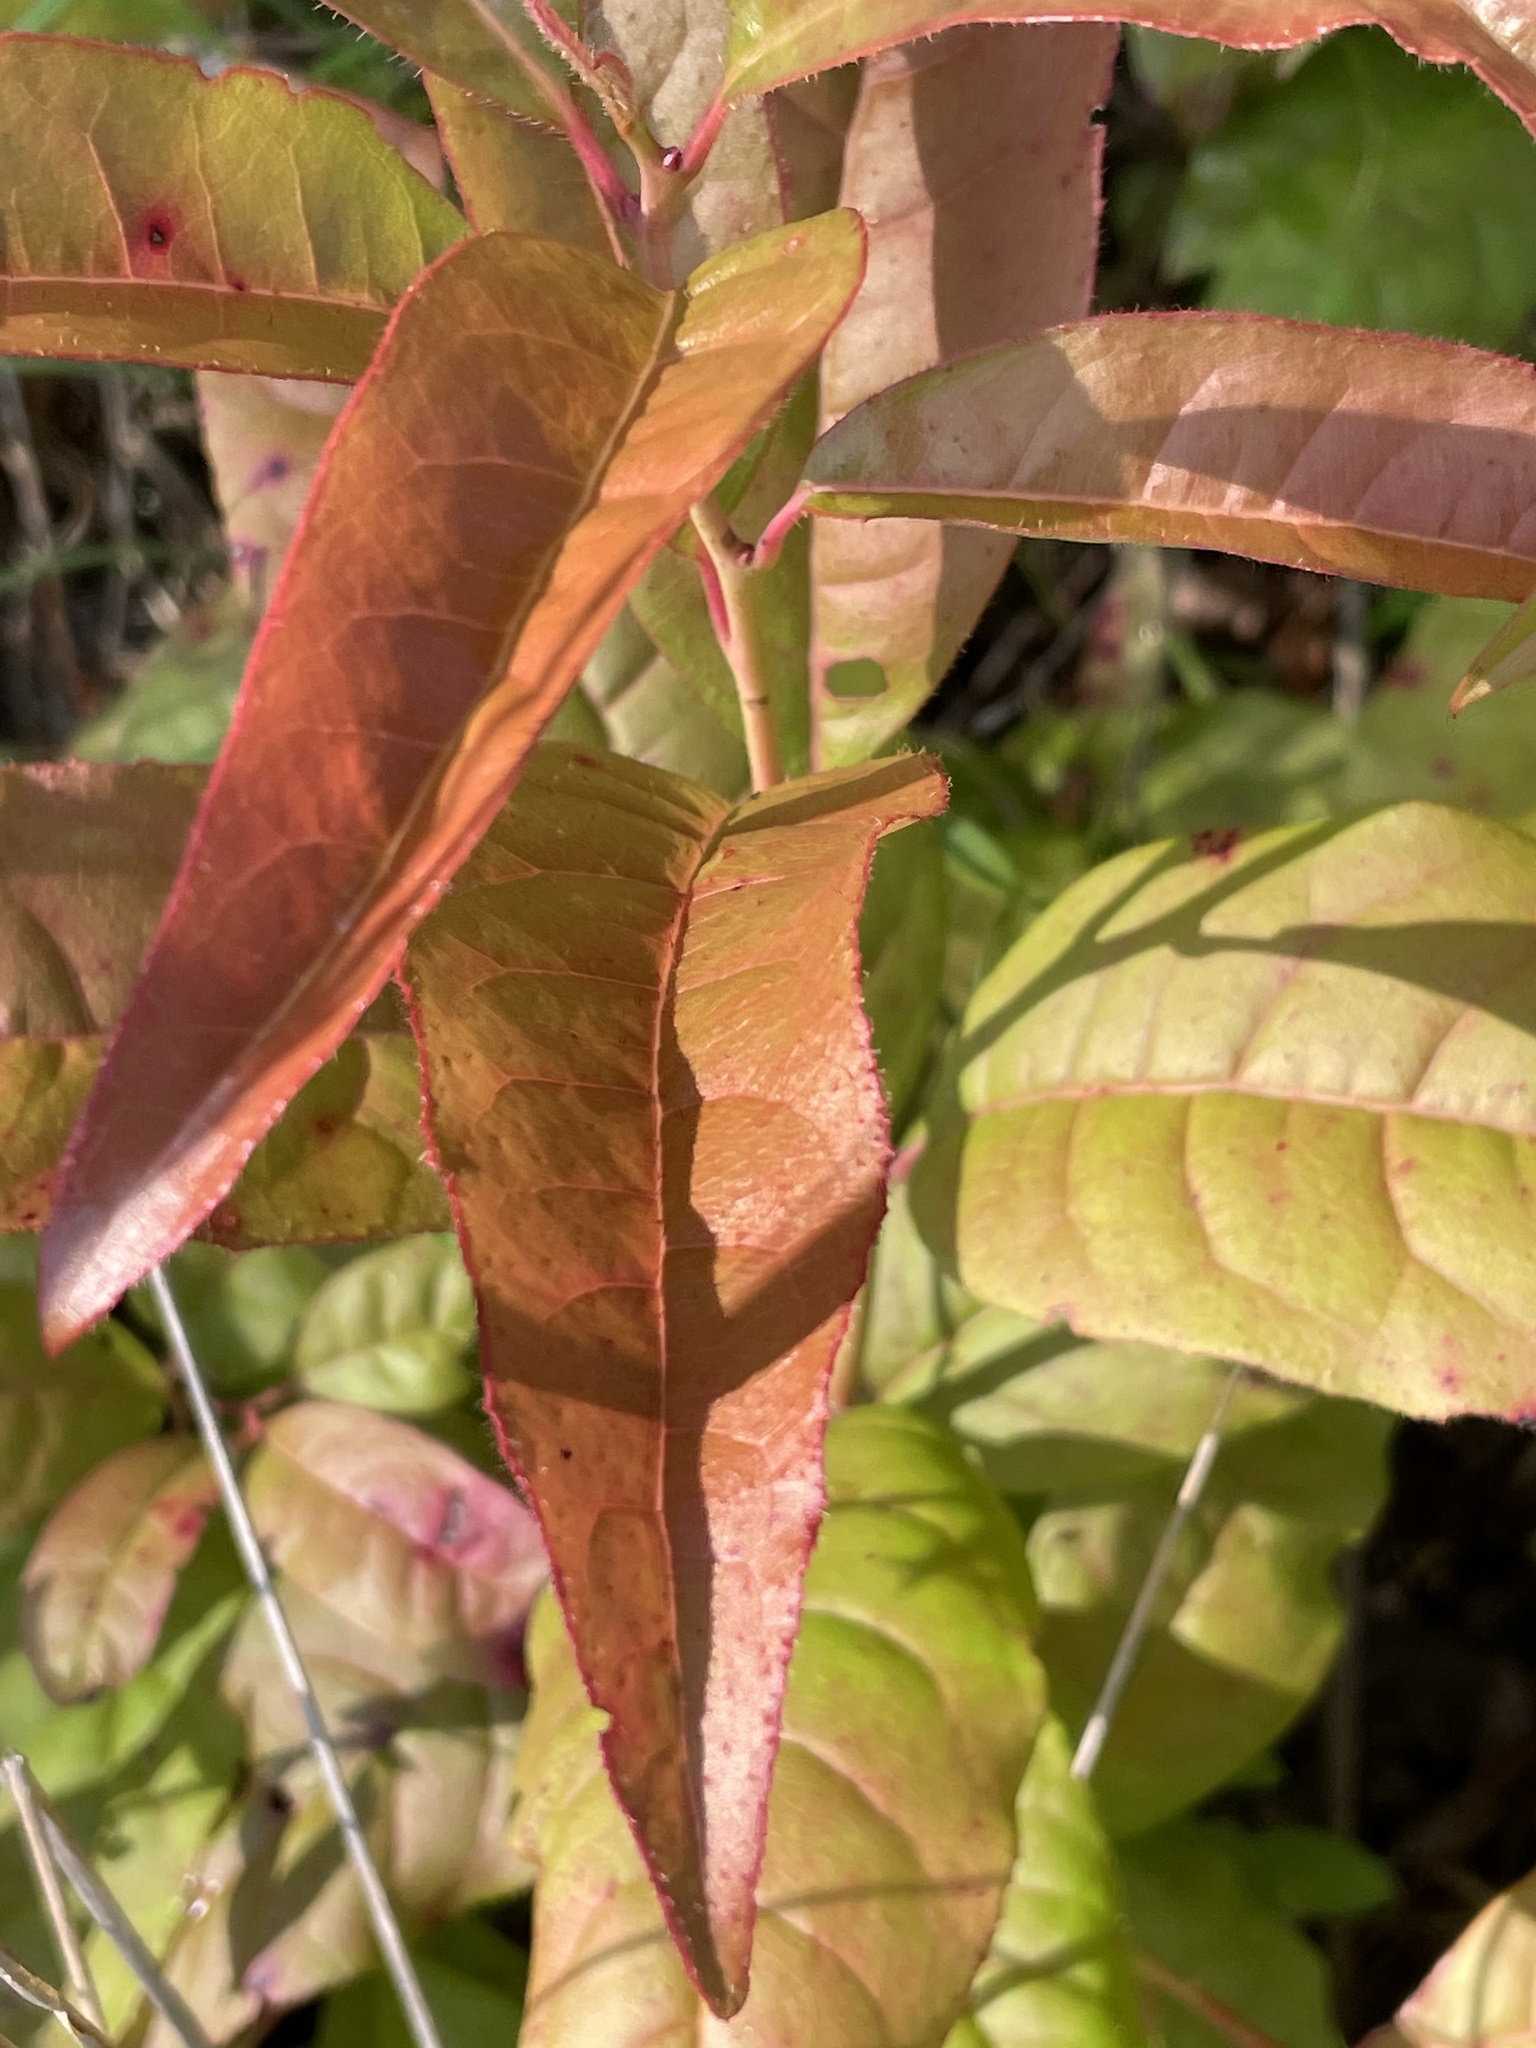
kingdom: Plantae
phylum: Tracheophyta
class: Magnoliopsida
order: Ericales
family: Ericaceae
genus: Oxydendrum
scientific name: Oxydendrum arboreum
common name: Sourwood
